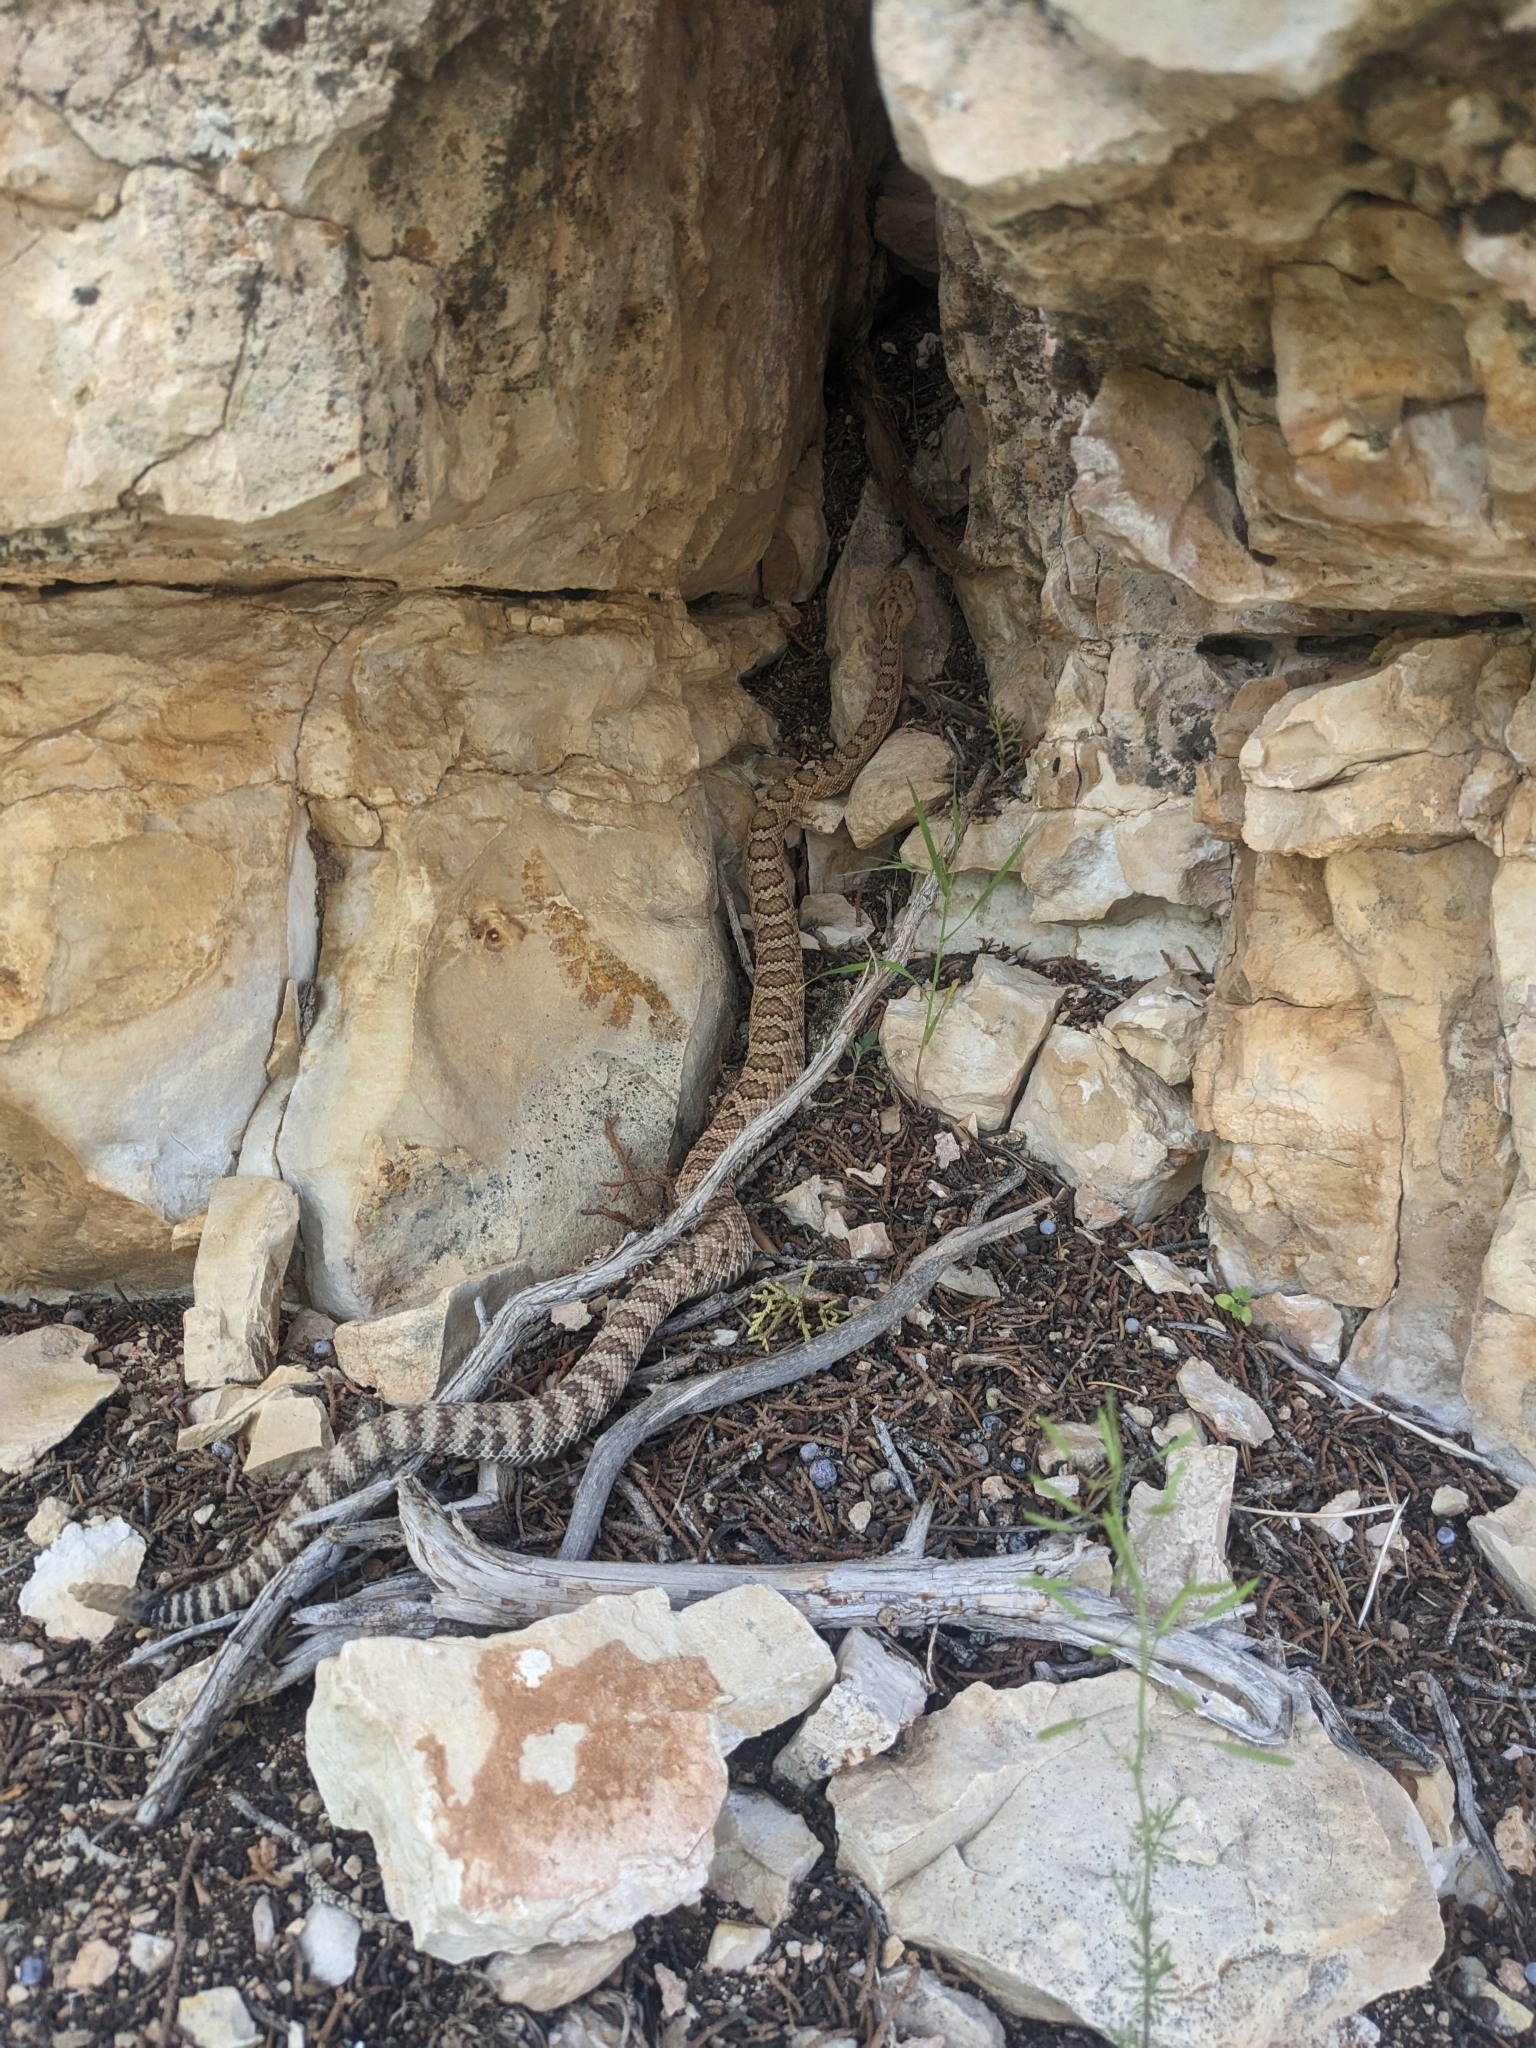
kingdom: Animalia
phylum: Chordata
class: Squamata
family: Viperidae
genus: Crotalus
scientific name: Crotalus oreganus
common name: Abyssus
